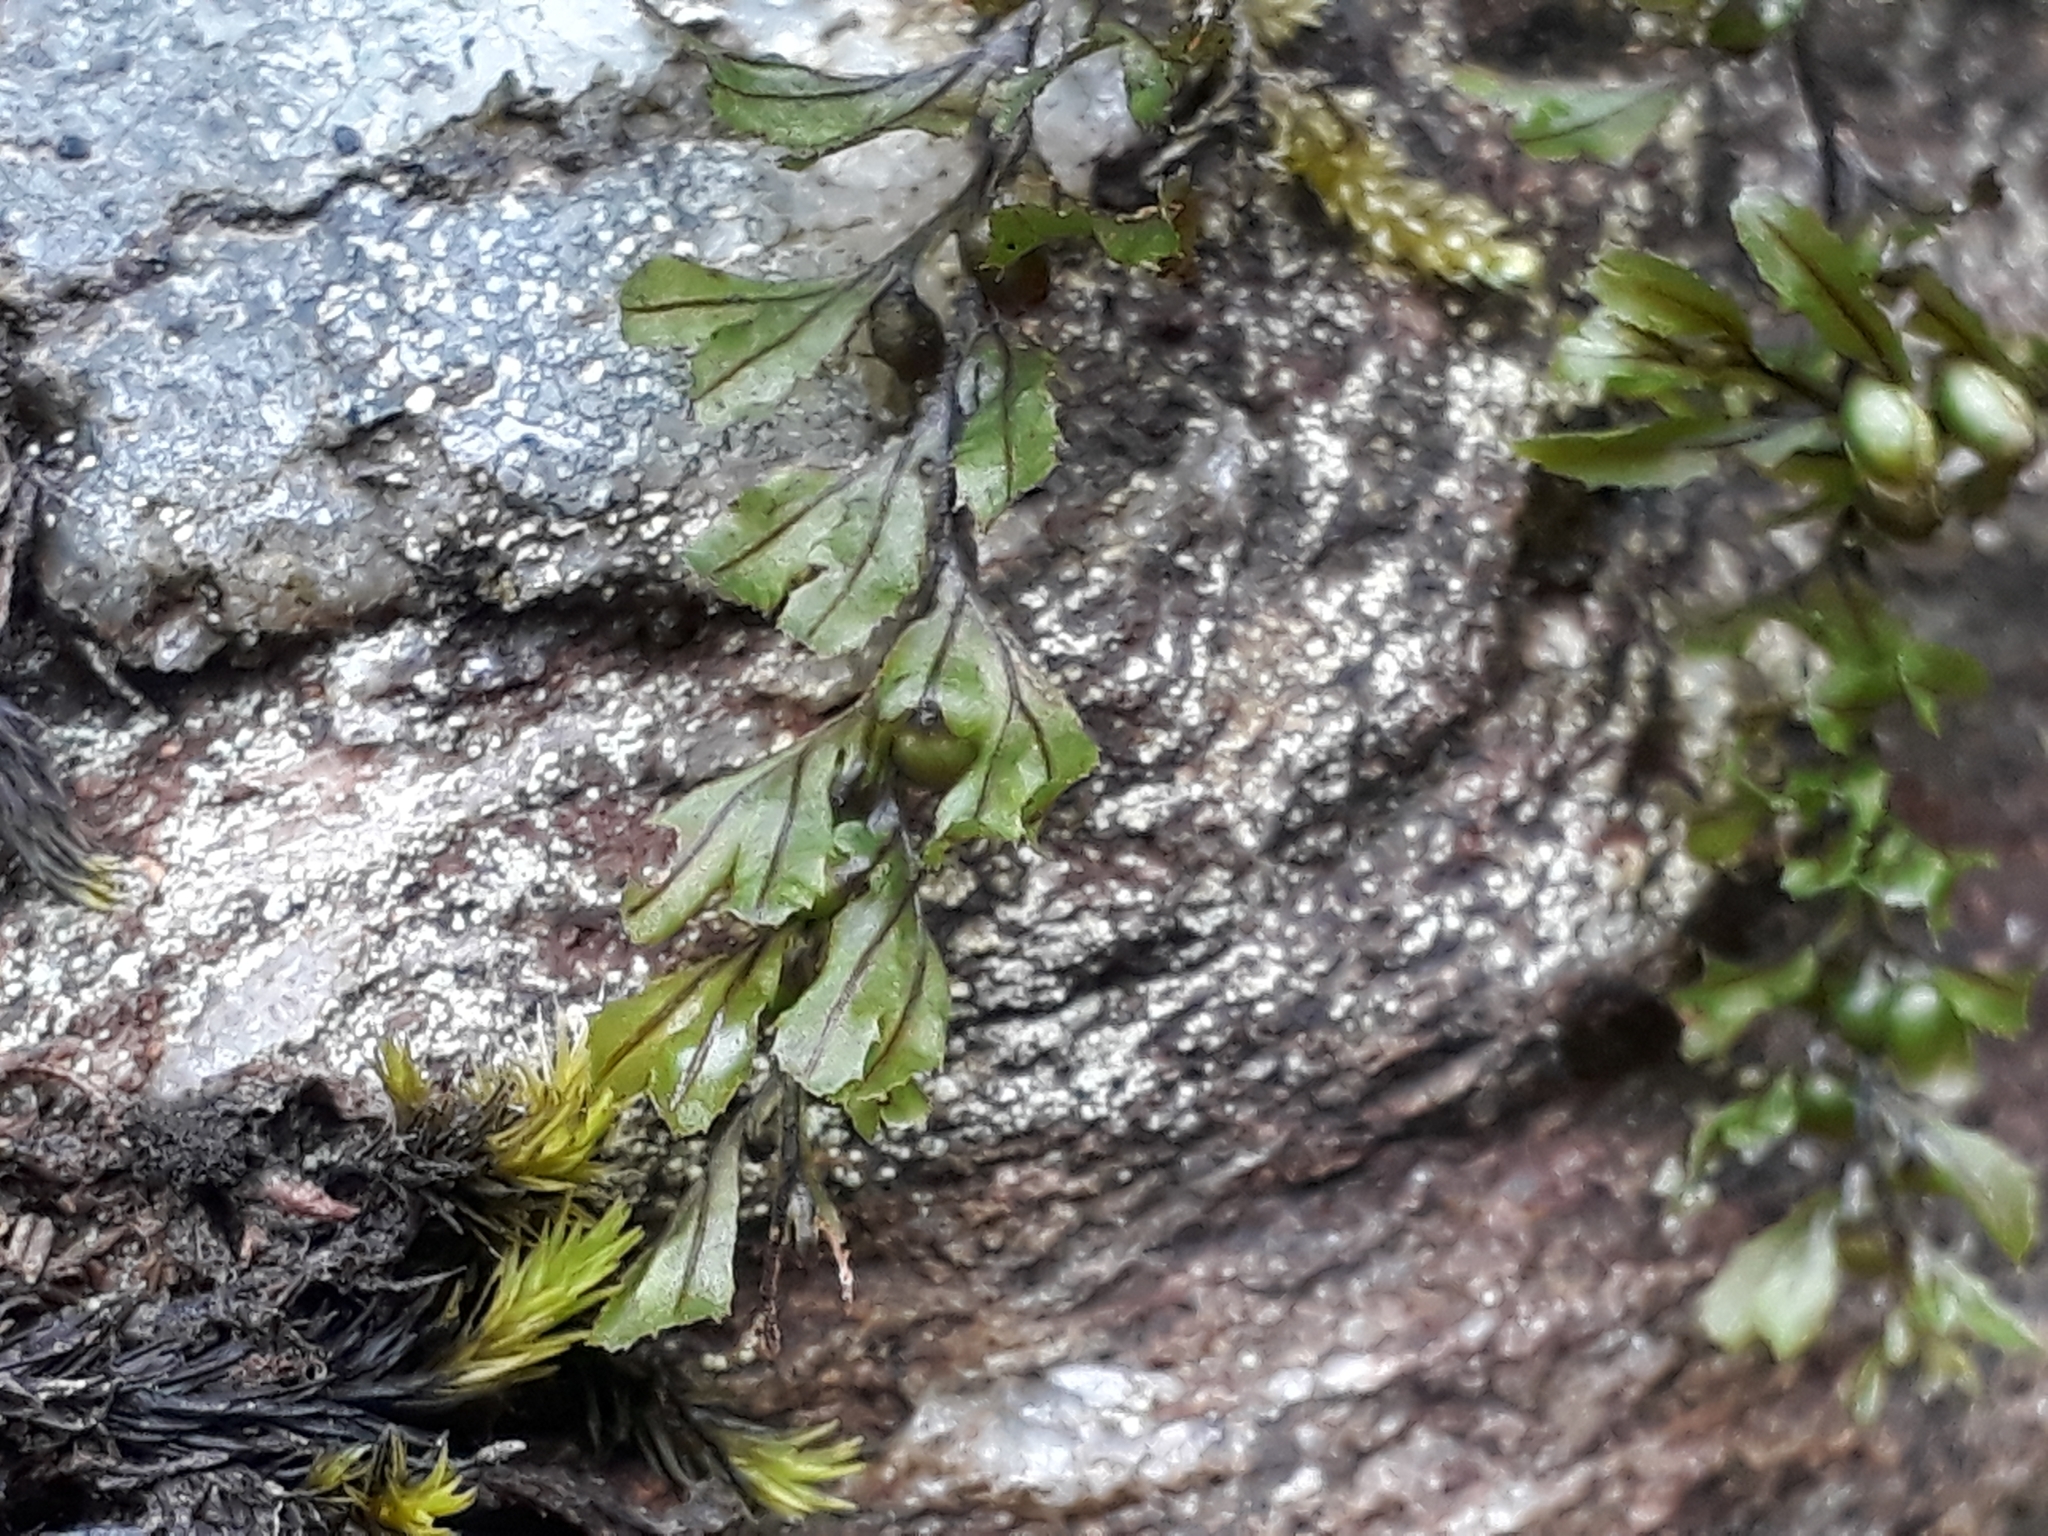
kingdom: Plantae
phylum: Tracheophyta
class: Polypodiopsida
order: Hymenophyllales
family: Hymenophyllaceae
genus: Hymenophyllum
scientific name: Hymenophyllum wilsonii
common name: Wilson's filmy fern
